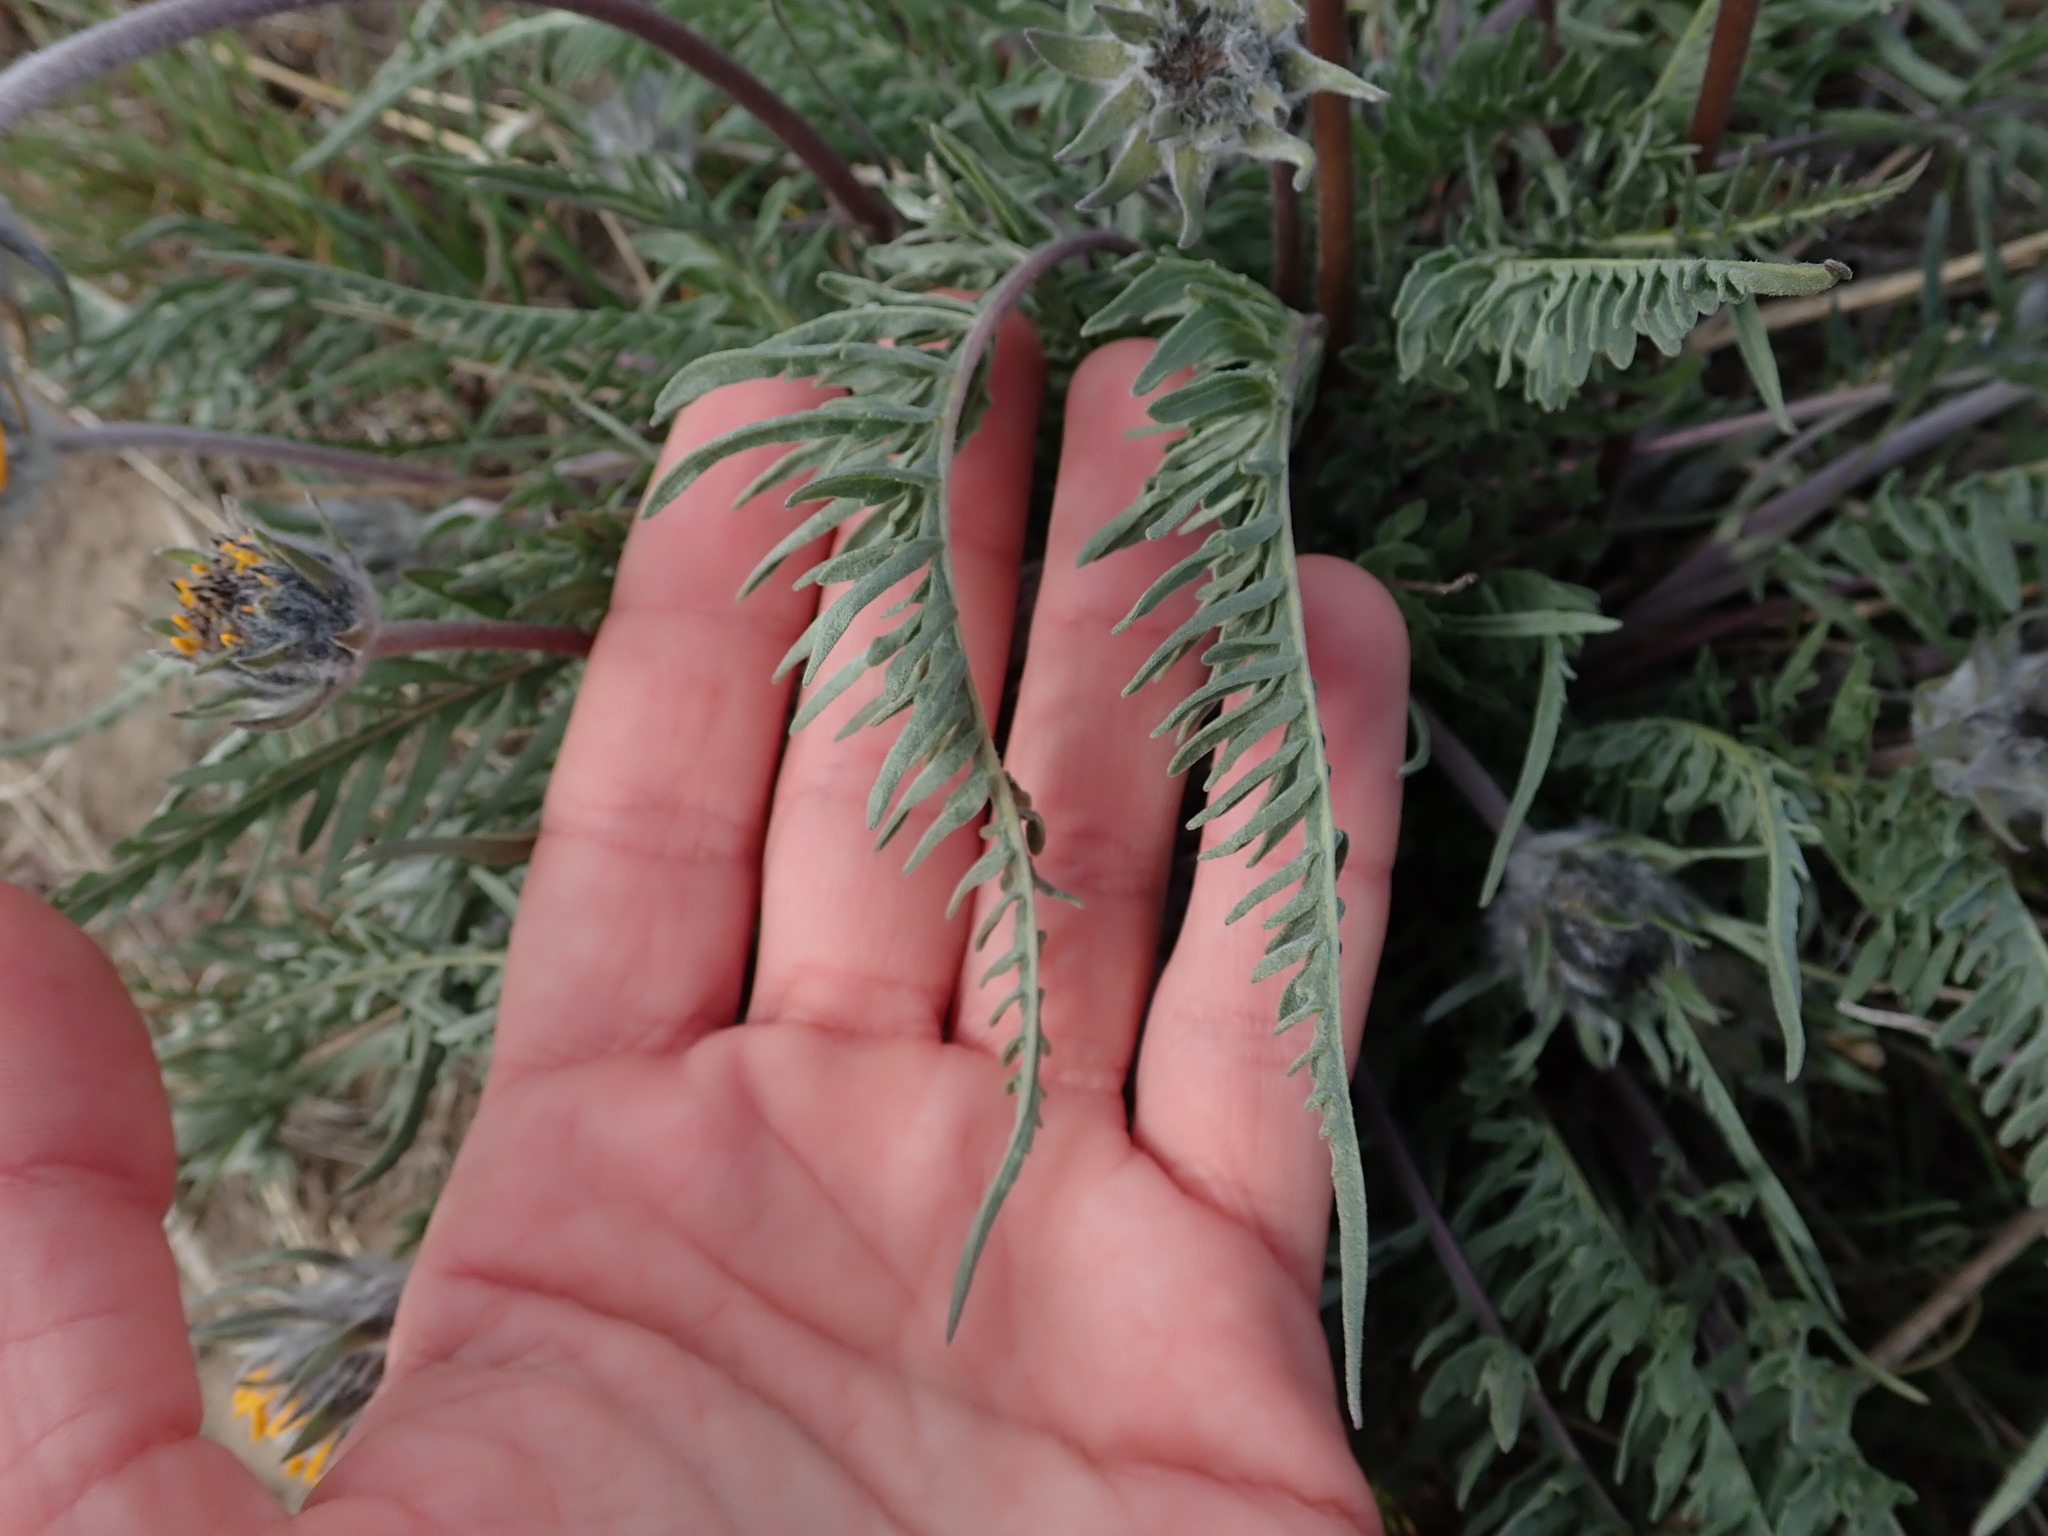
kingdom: Plantae
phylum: Tracheophyta
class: Magnoliopsida
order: Asterales
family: Asteraceae
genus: Balsamorhiza
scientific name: Balsamorhiza hookeri
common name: Hooker's balsamroot
